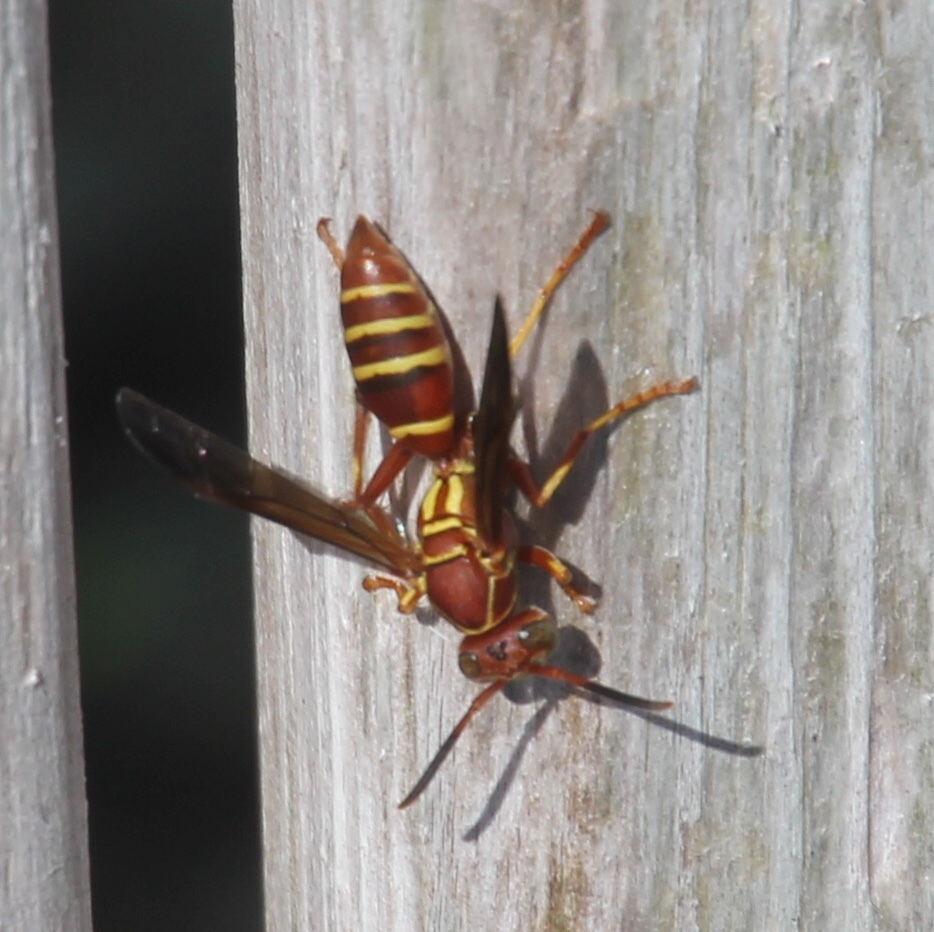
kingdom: Animalia
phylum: Arthropoda
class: Insecta
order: Hymenoptera
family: Eumenidae
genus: Polistes
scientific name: Polistes bellicosus
